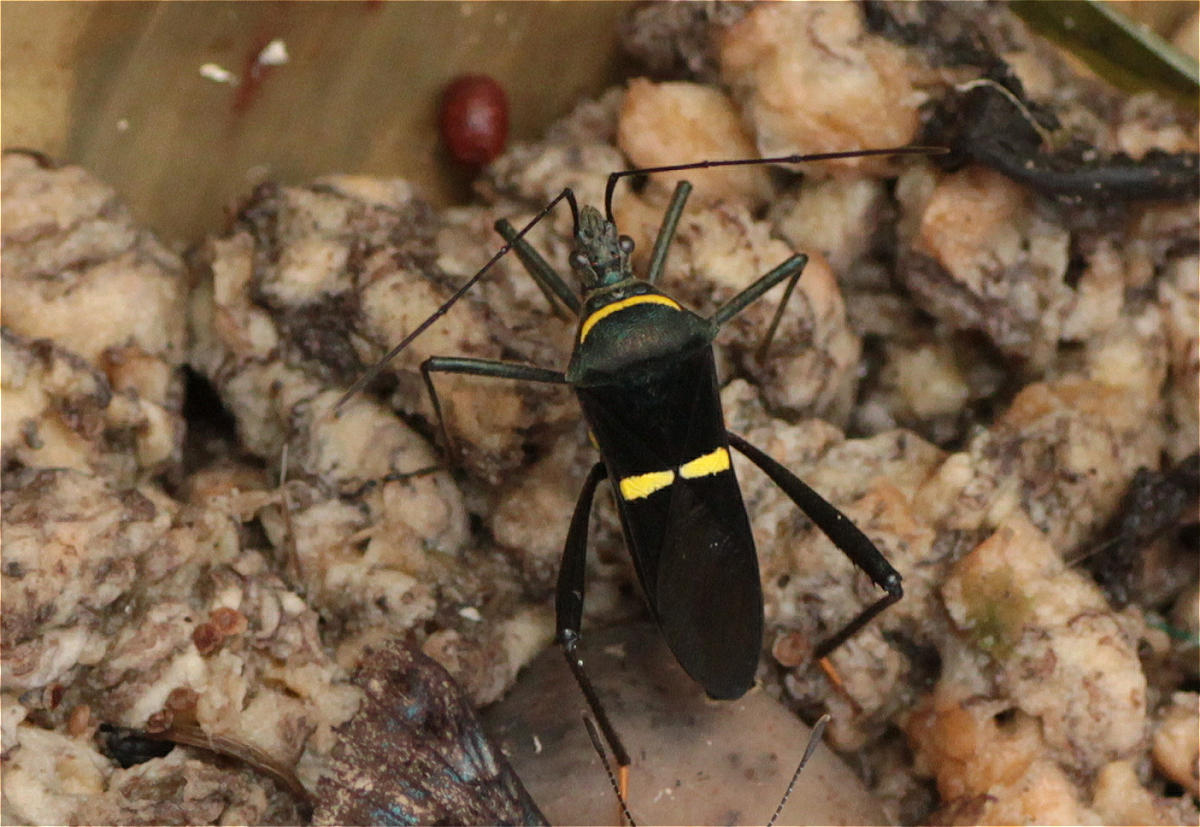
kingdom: Animalia
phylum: Arthropoda
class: Insecta
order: Hemiptera
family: Coreidae
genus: Phthia
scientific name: Phthia lunata
